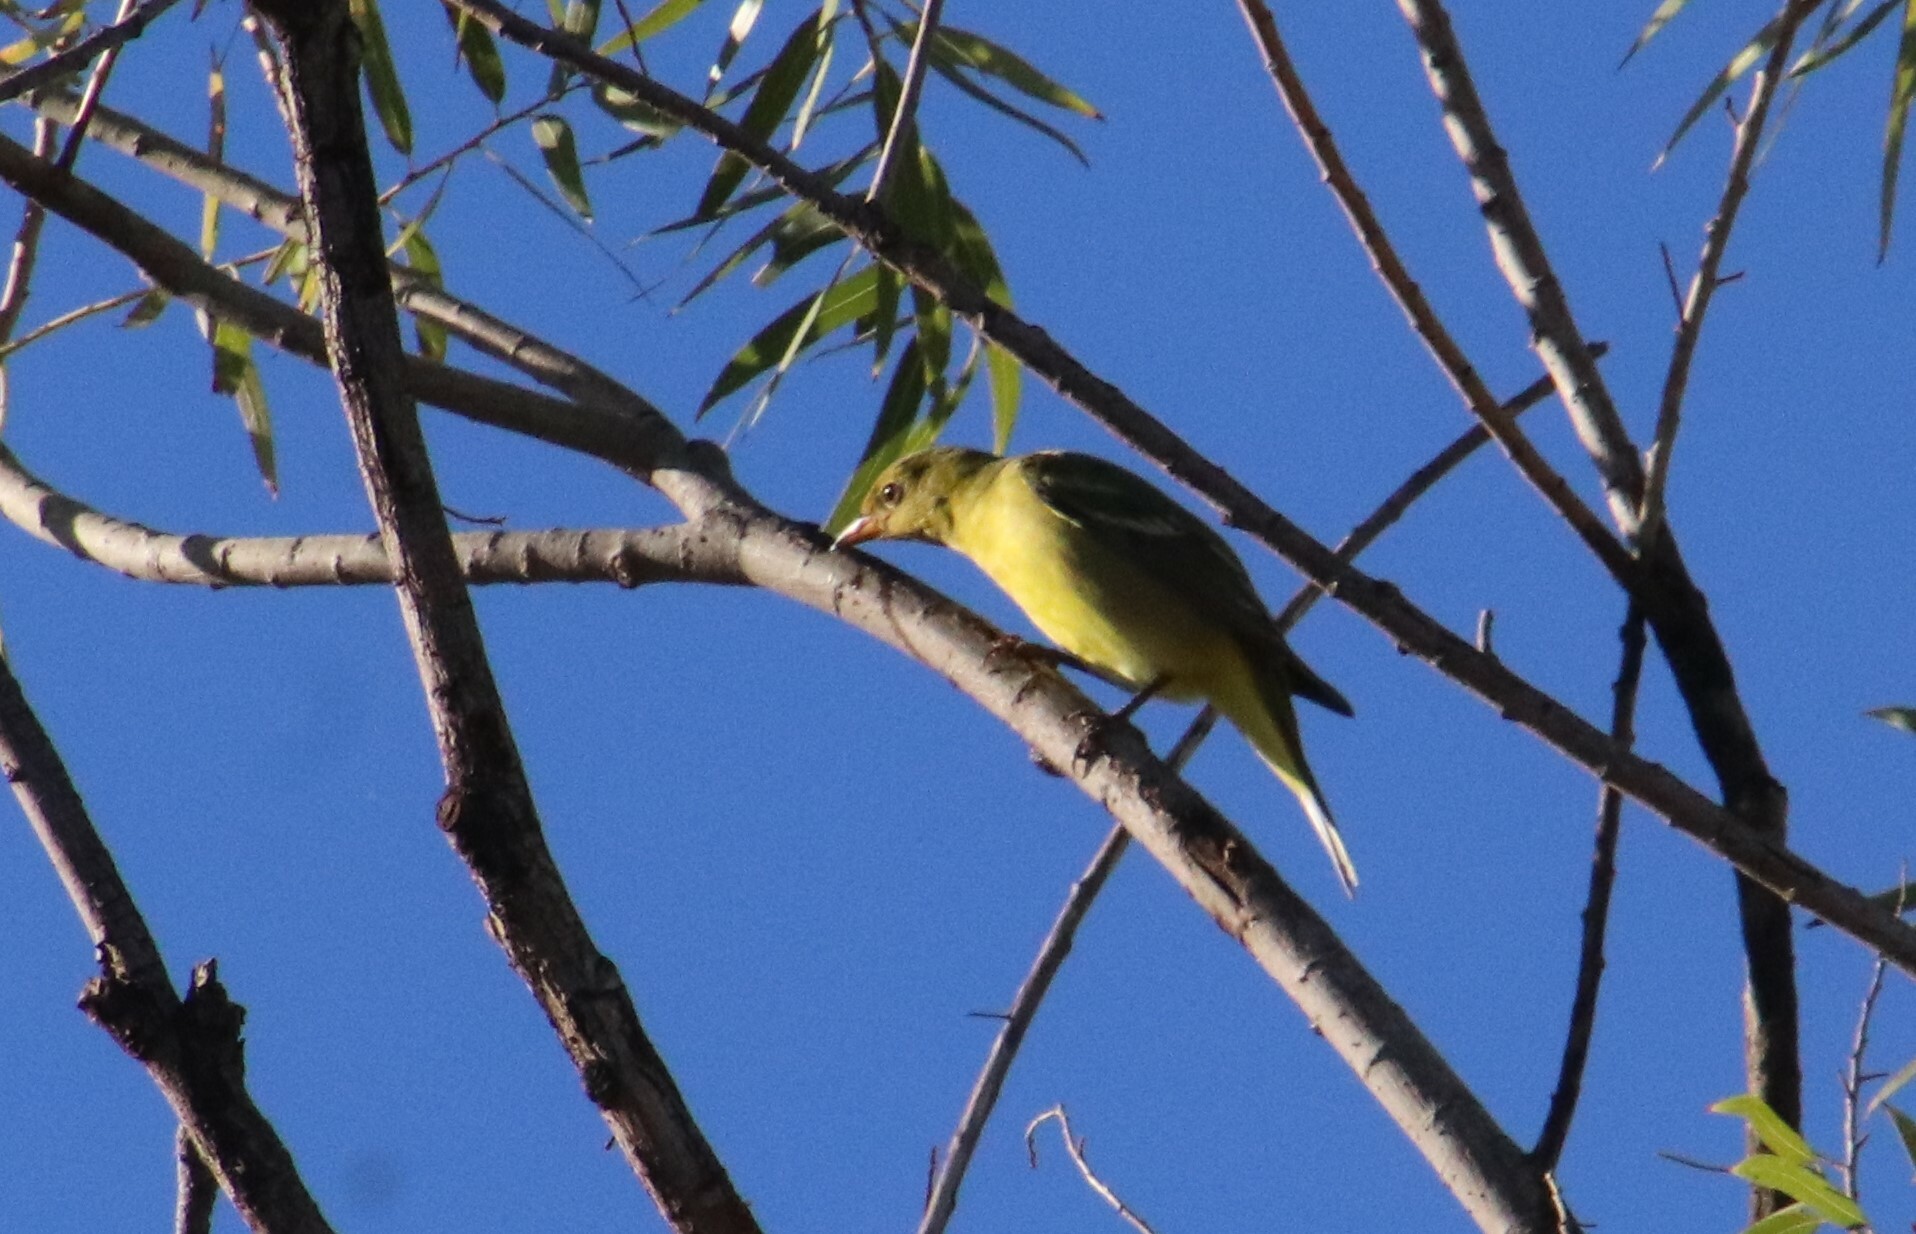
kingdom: Animalia
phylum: Chordata
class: Aves
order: Passeriformes
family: Cardinalidae
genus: Piranga
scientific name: Piranga ludoviciana
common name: Western tanager
